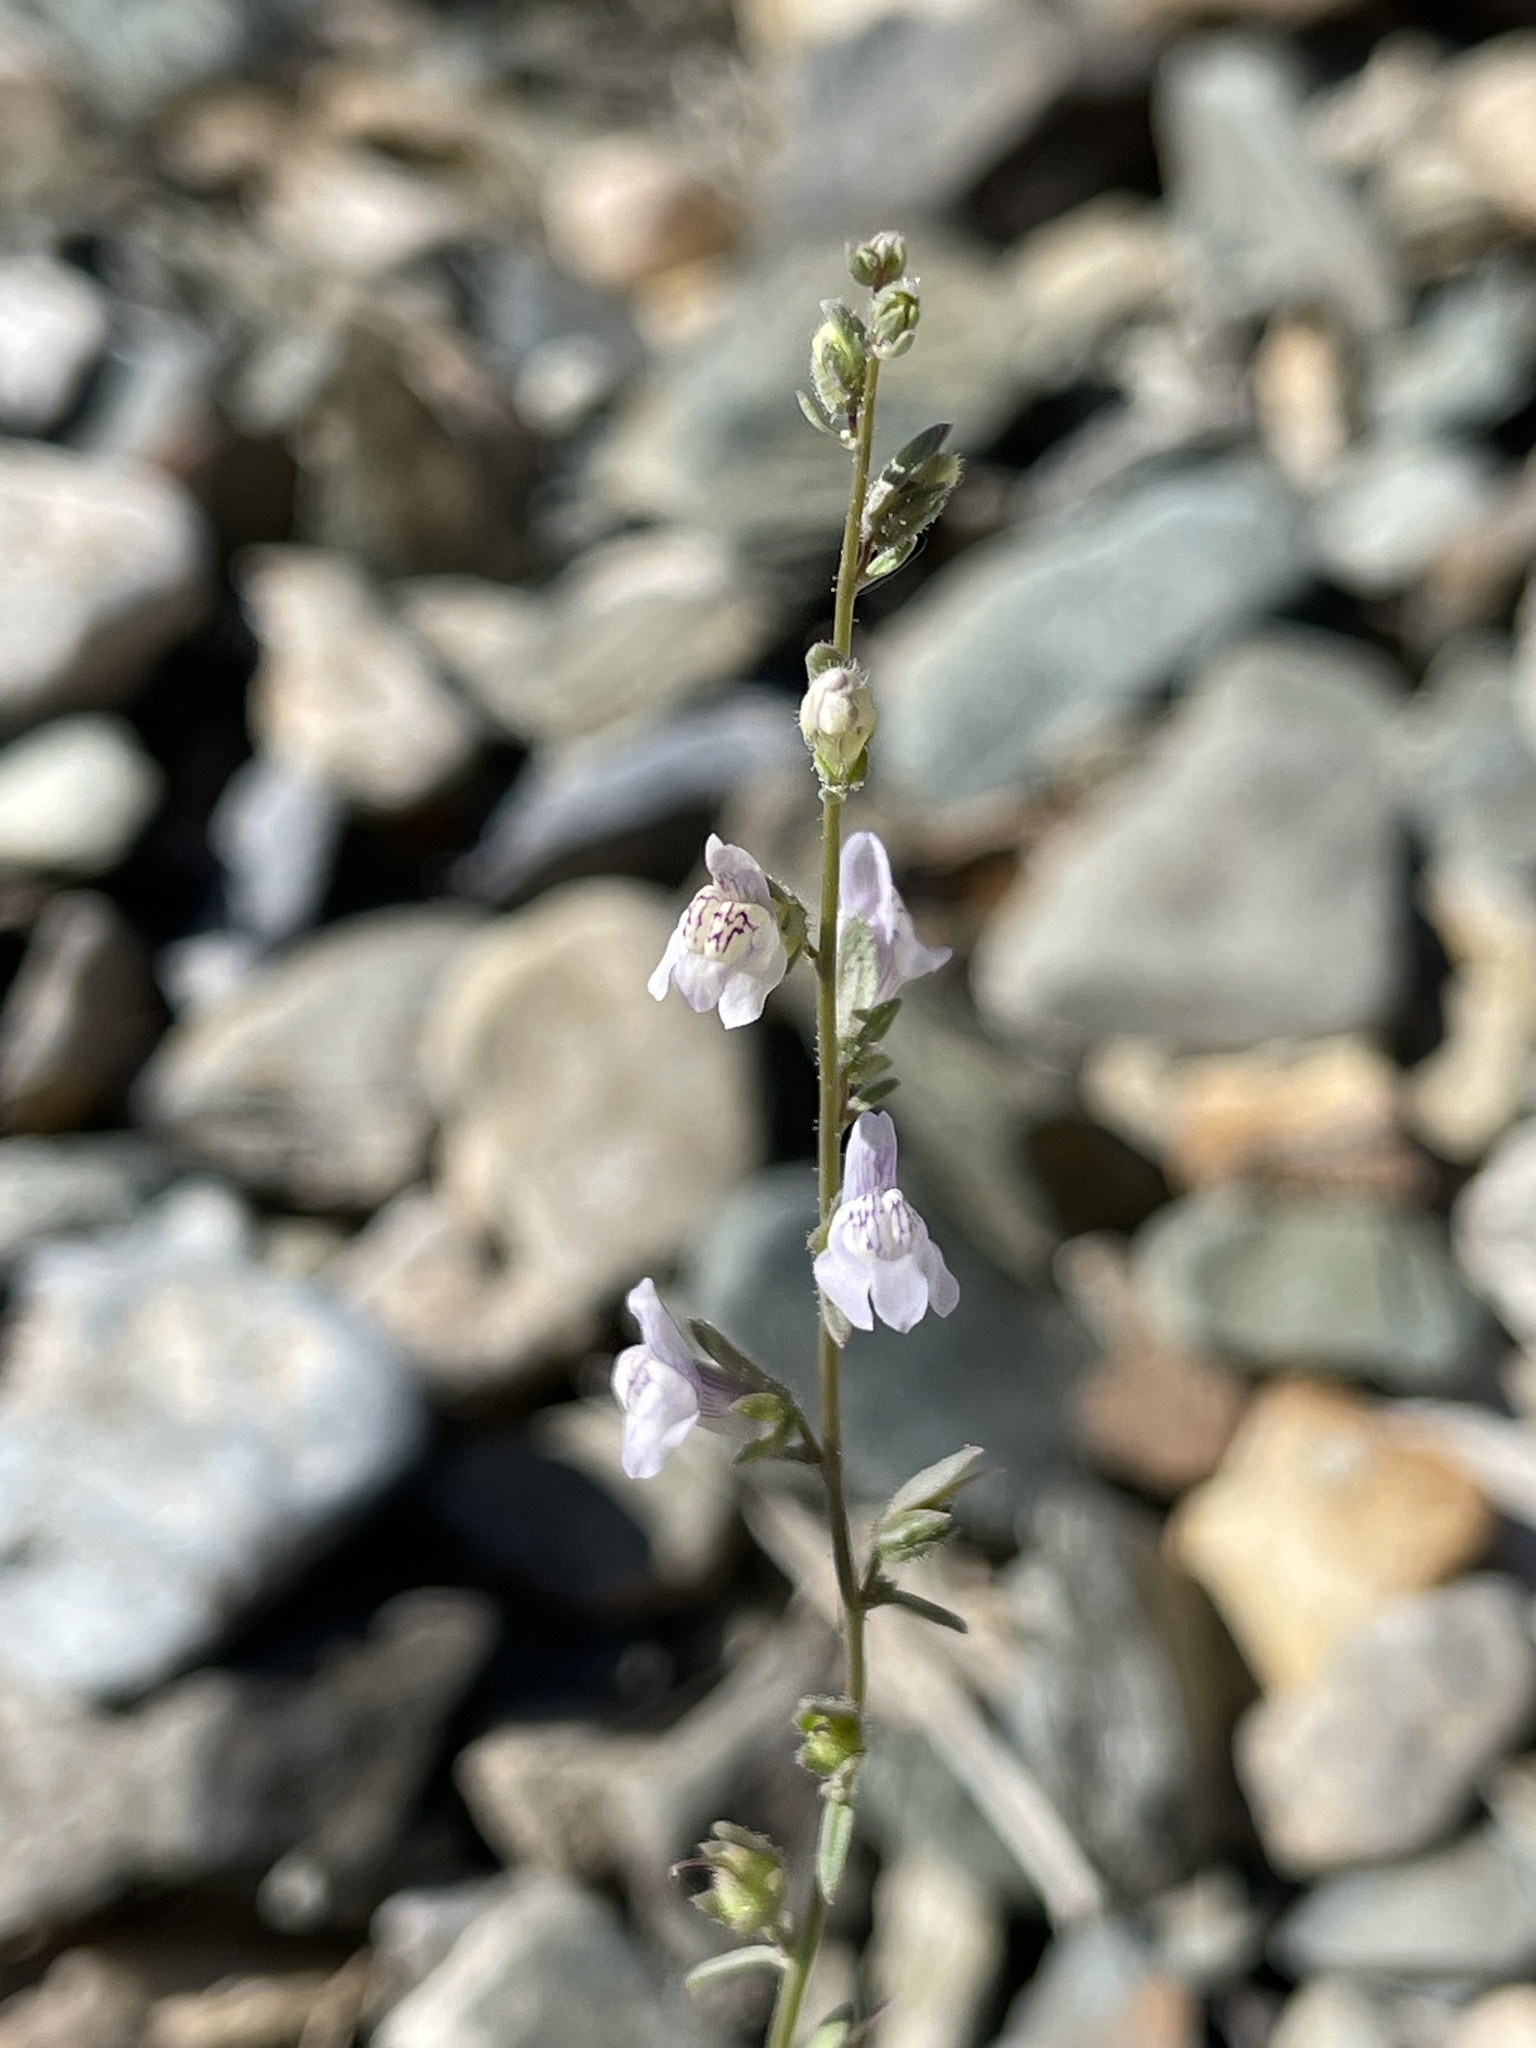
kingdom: Plantae
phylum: Tracheophyta
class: Magnoliopsida
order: Lamiales
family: Plantaginaceae
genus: Sairocarpus
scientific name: Sairocarpus kingii
